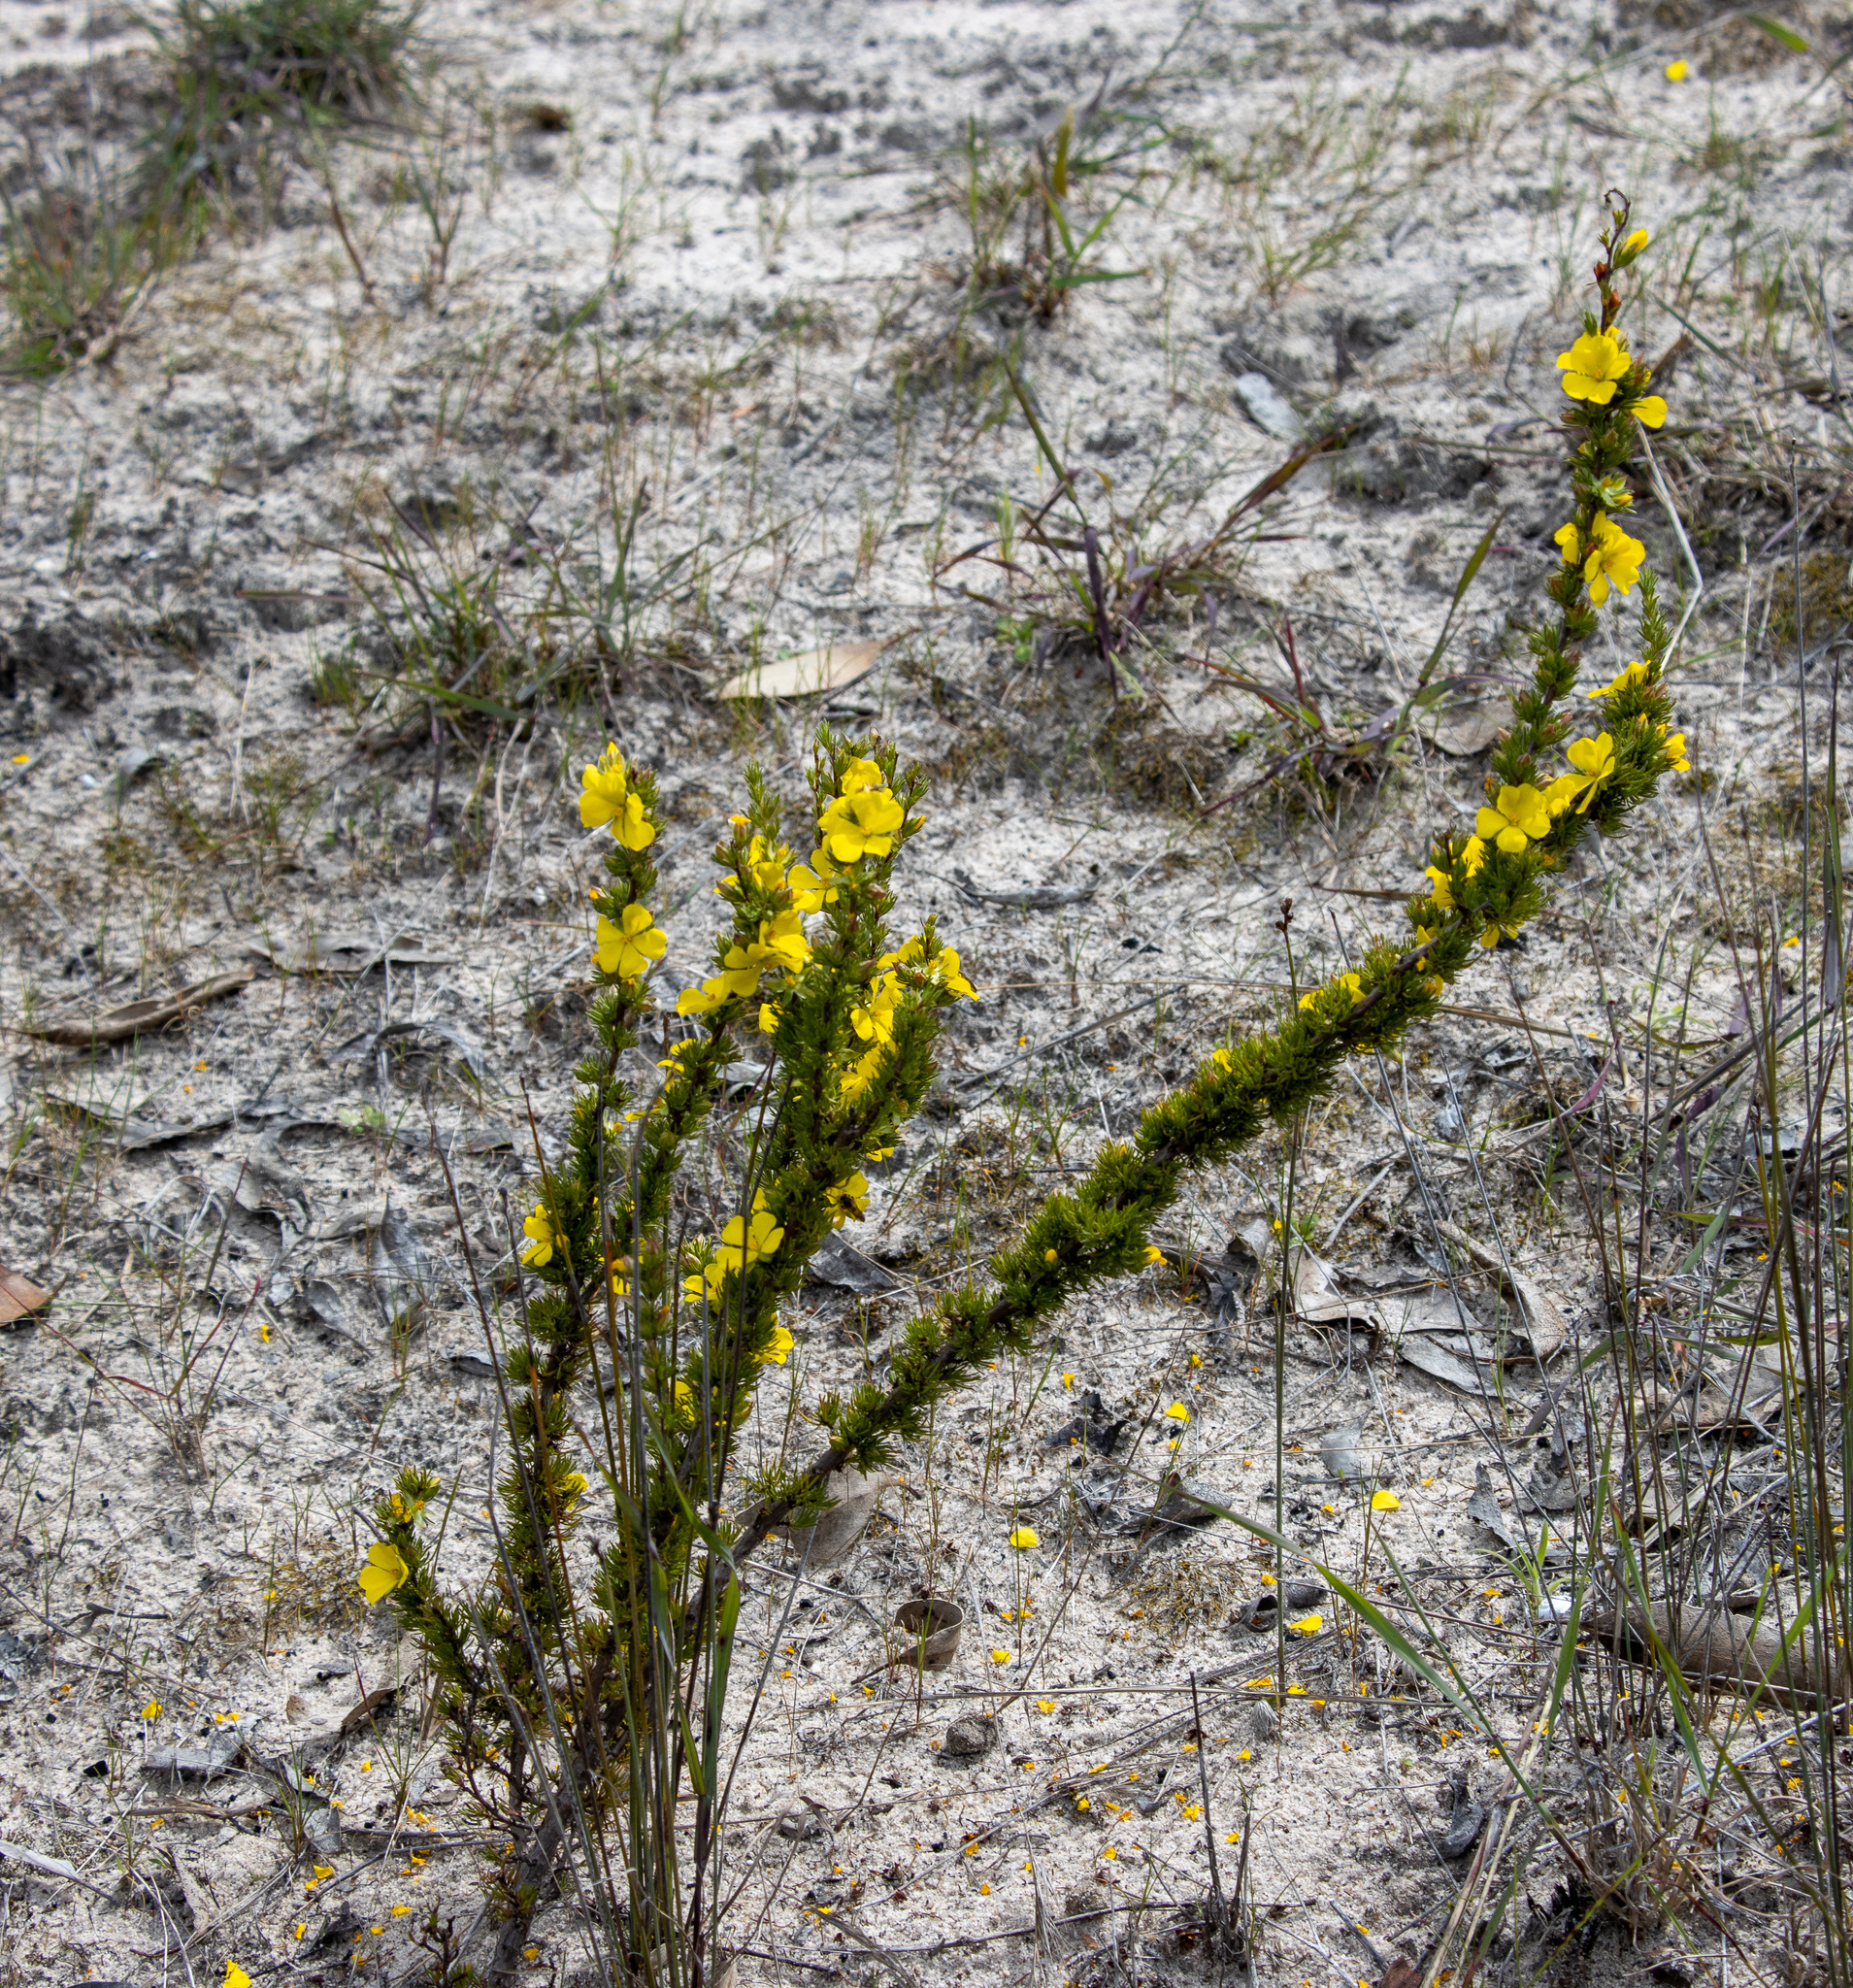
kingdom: Plantae
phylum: Tracheophyta
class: Magnoliopsida
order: Dilleniales
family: Dilleniaceae
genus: Hibbertia
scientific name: Hibbertia fasciculata
